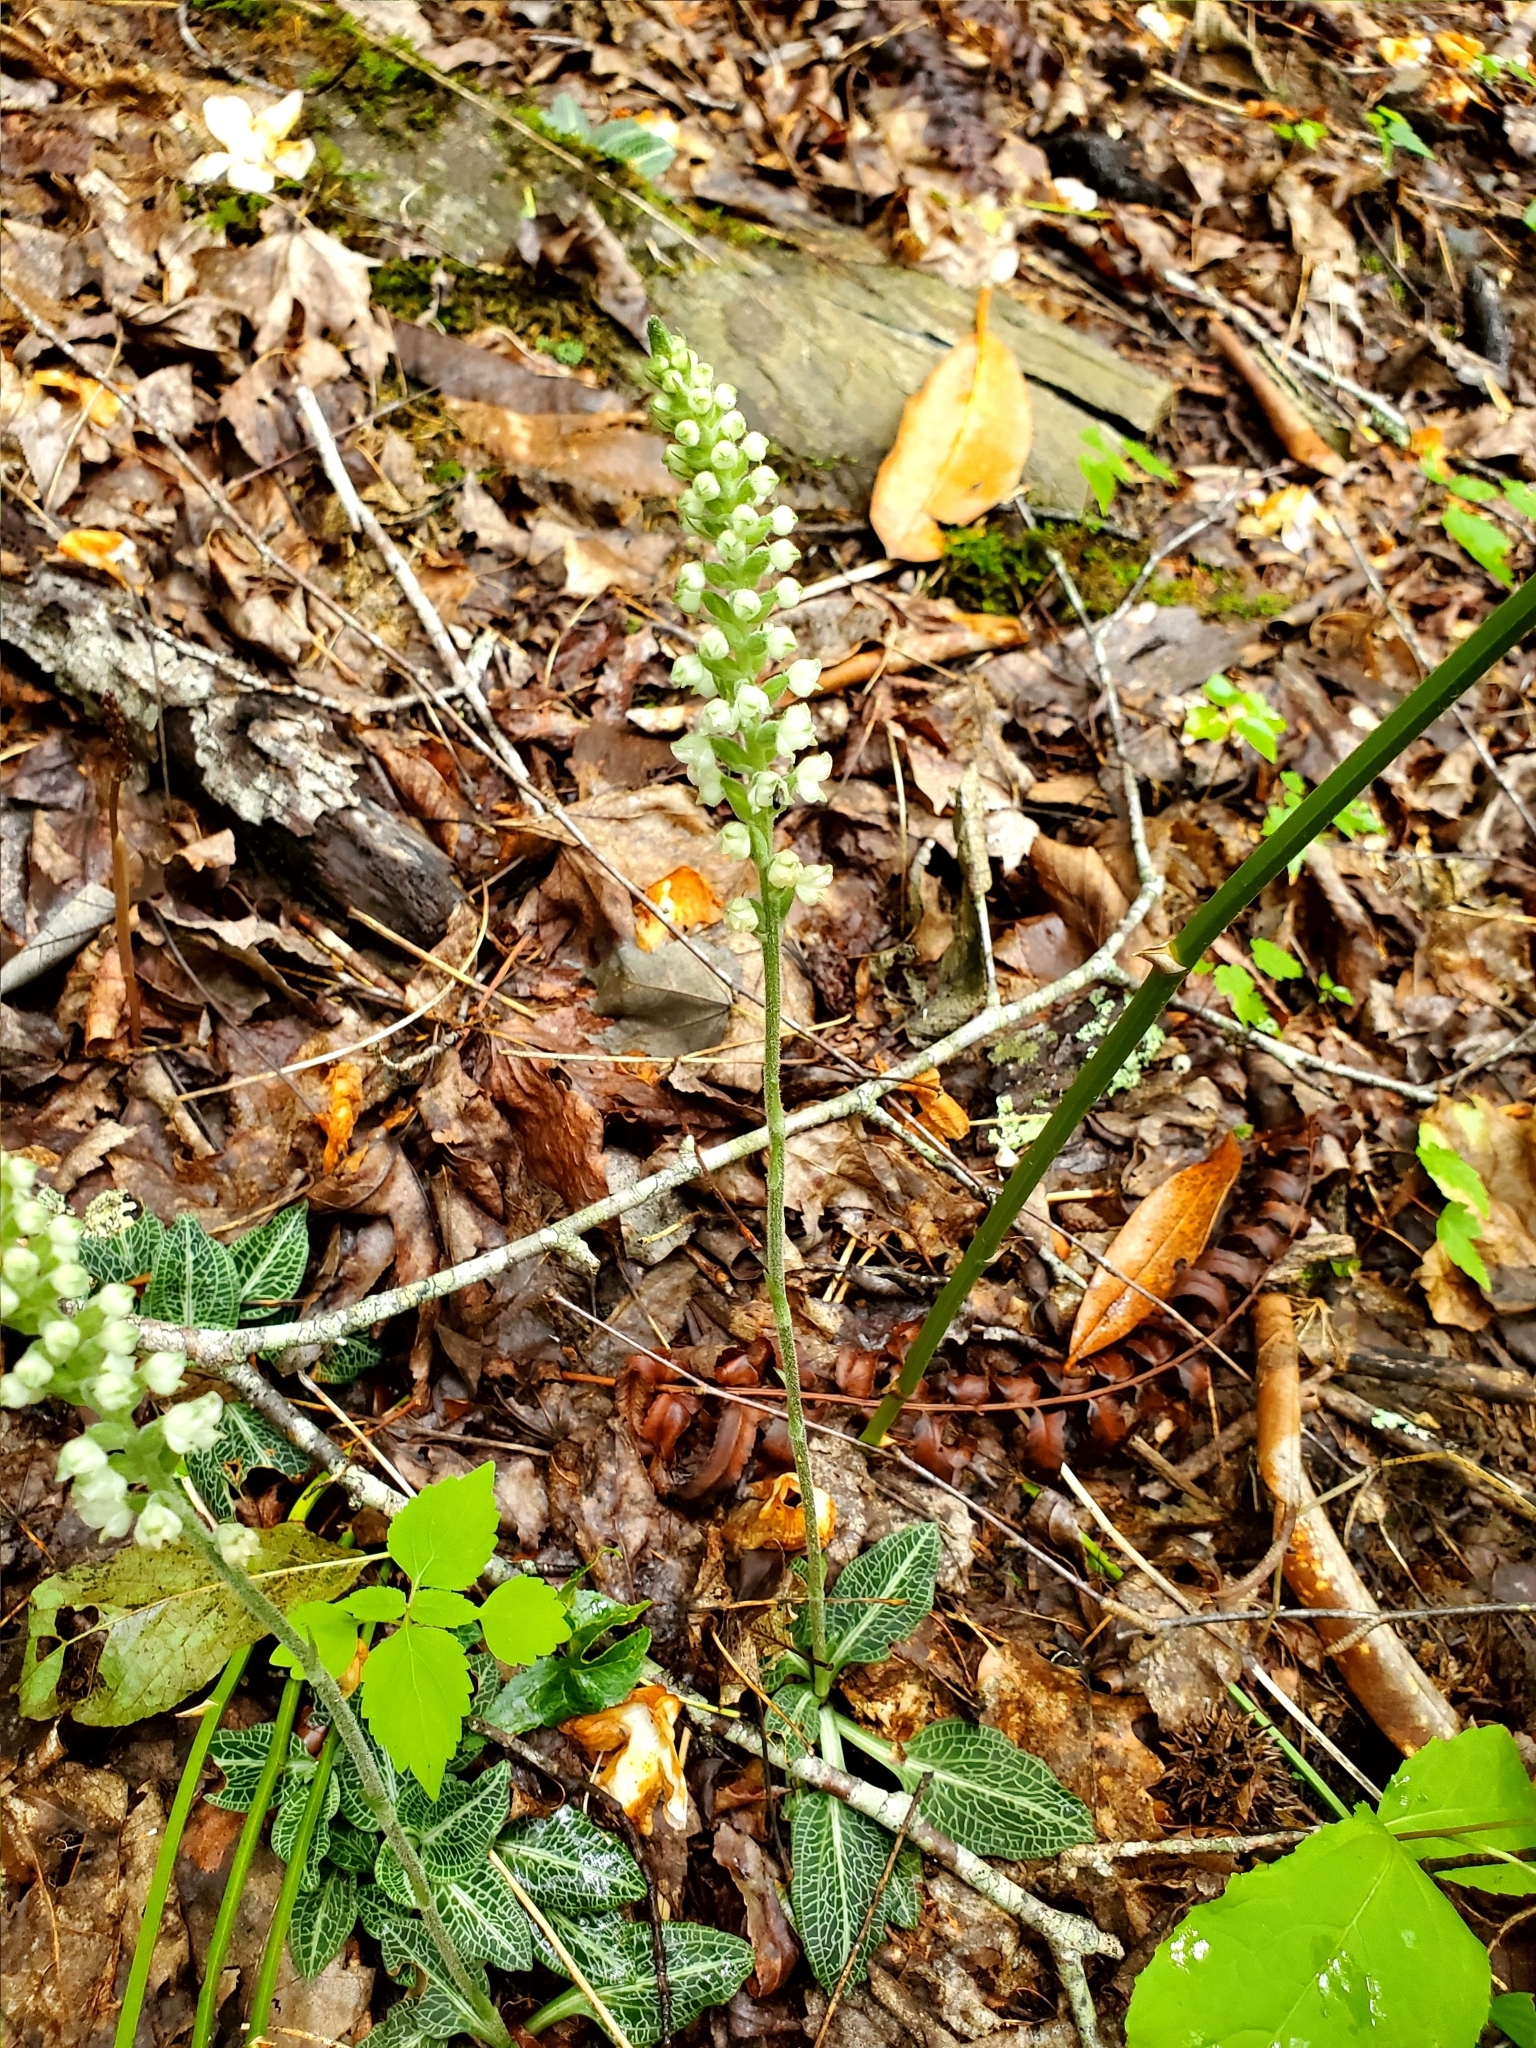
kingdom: Plantae
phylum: Tracheophyta
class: Liliopsida
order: Asparagales
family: Orchidaceae
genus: Goodyera
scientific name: Goodyera pubescens
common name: Downy rattlesnake-plantain
